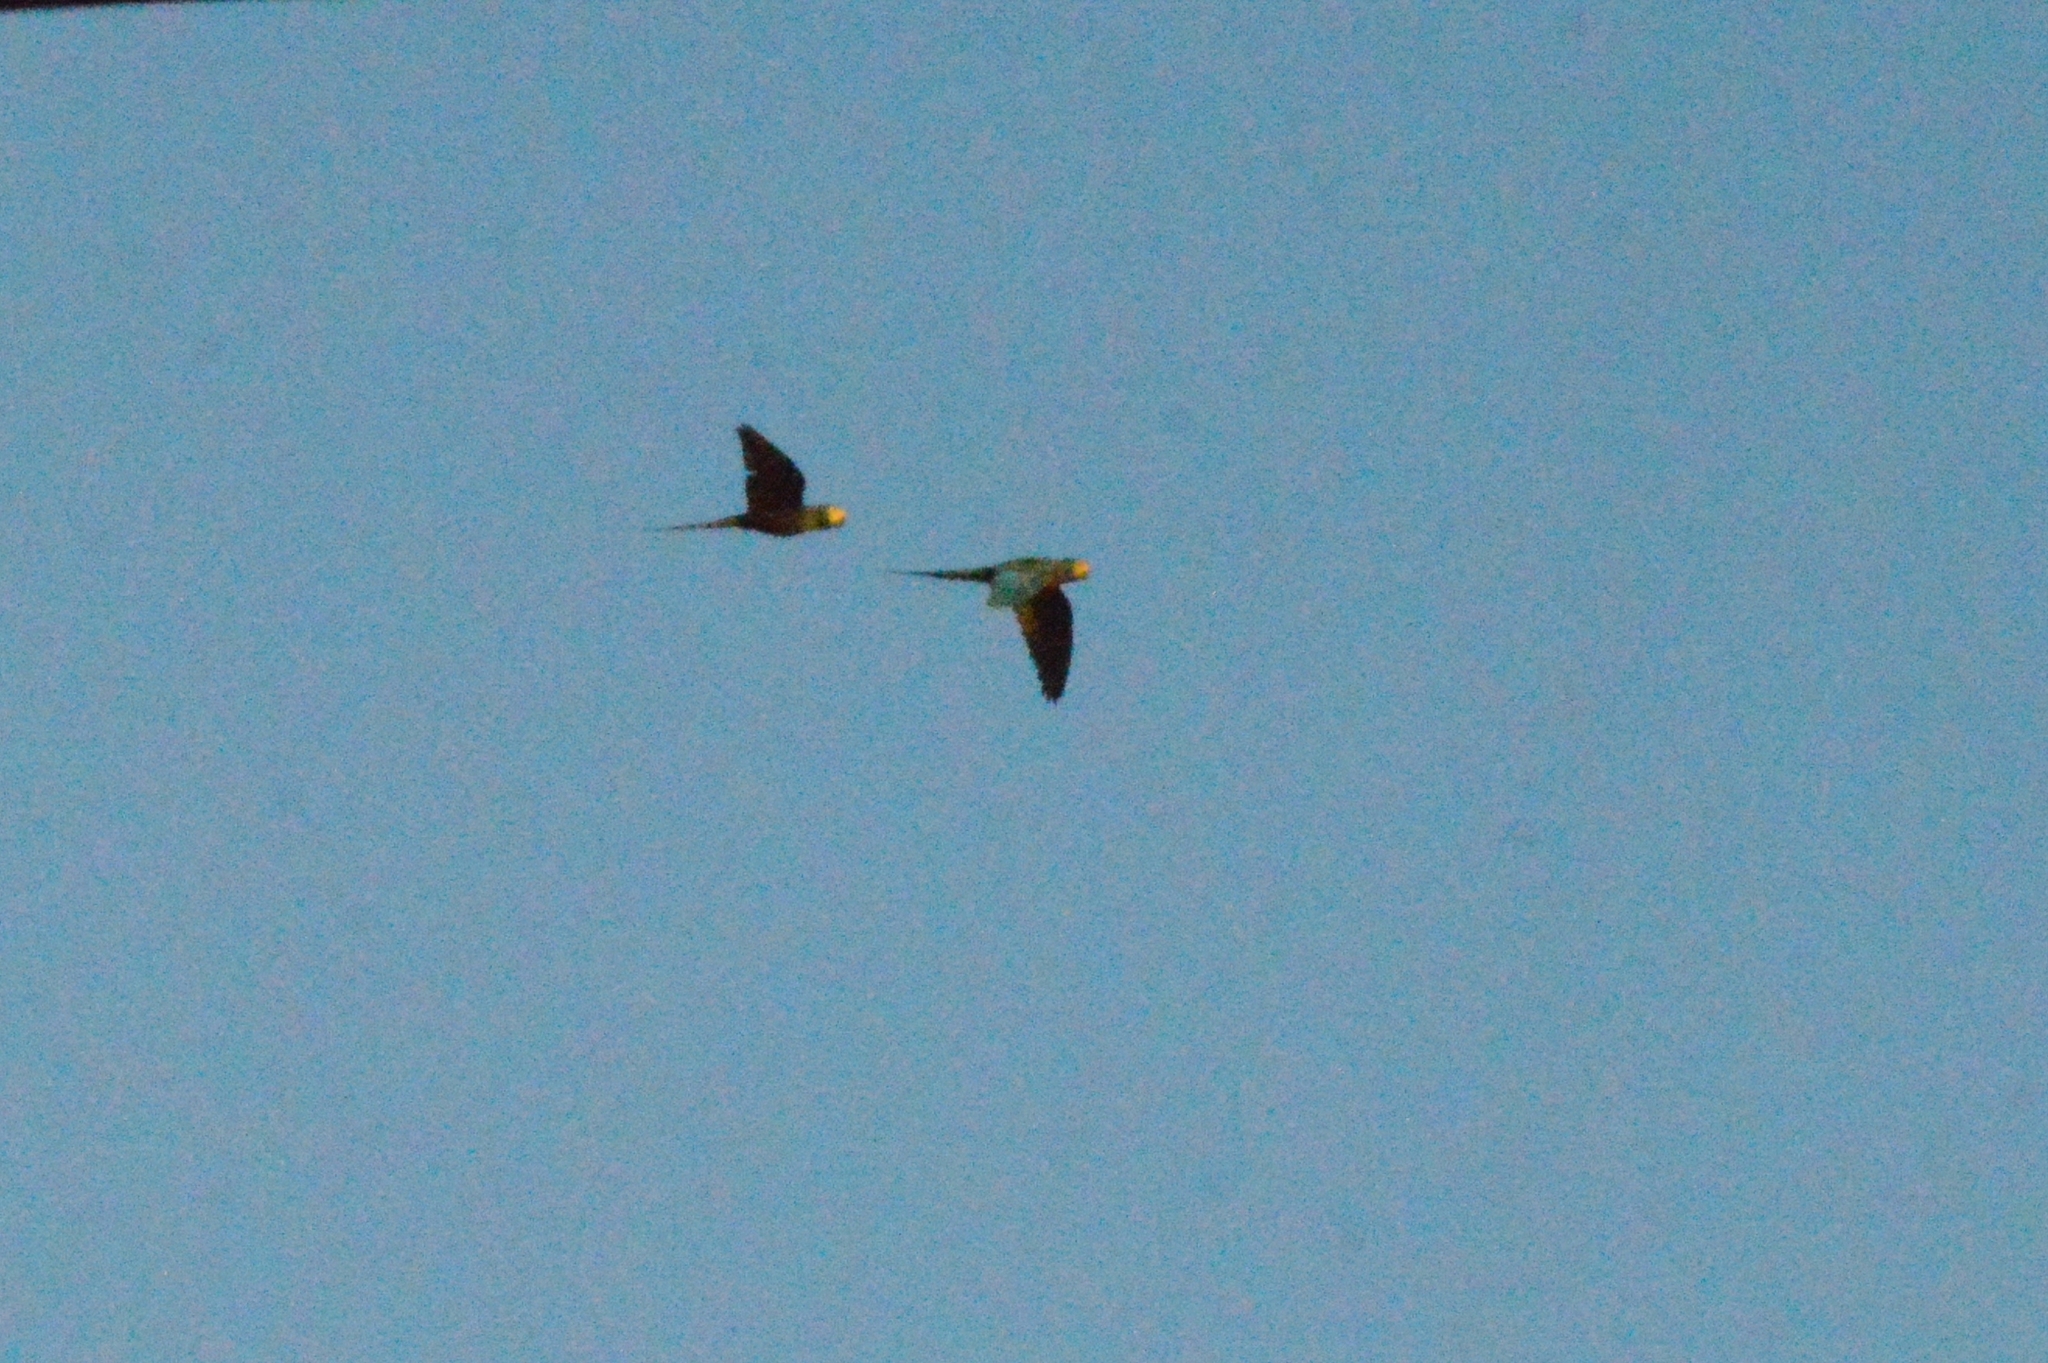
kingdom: Animalia
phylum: Chordata
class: Aves
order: Psittaciformes
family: Psittacidae
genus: Orthopsittaca
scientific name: Orthopsittaca manilata
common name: Red-bellied macaw
